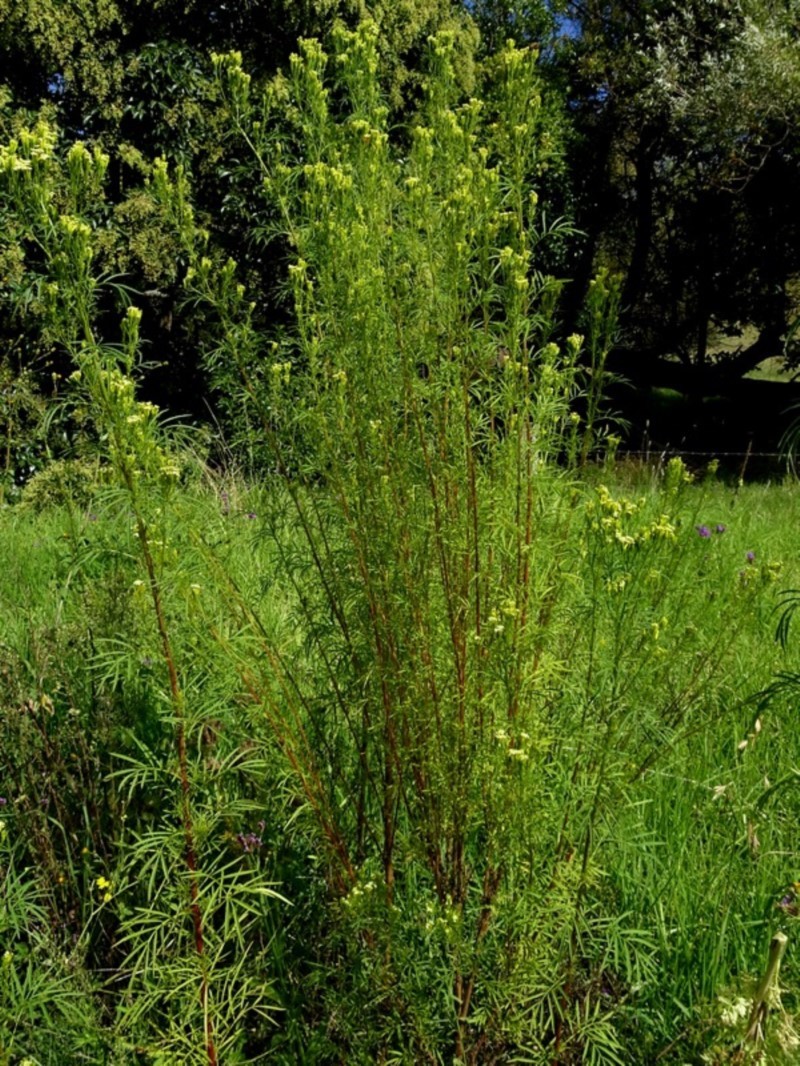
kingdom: Plantae
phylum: Tracheophyta
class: Magnoliopsida
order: Asterales
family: Asteraceae
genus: Tagetes
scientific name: Tagetes minuta
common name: Muster john henry
